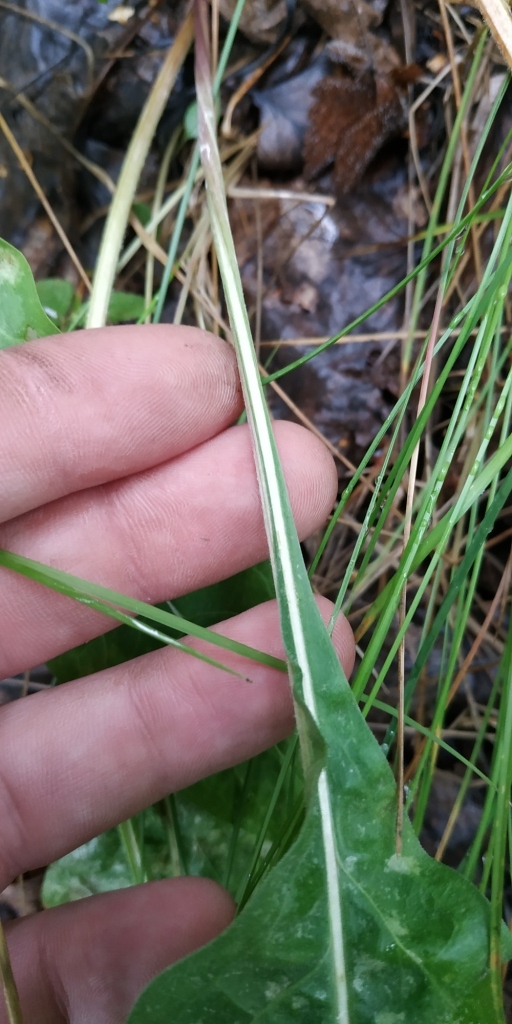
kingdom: Plantae
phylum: Tracheophyta
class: Magnoliopsida
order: Boraginales
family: Boraginaceae
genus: Pulmonaria
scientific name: Pulmonaria mollis
